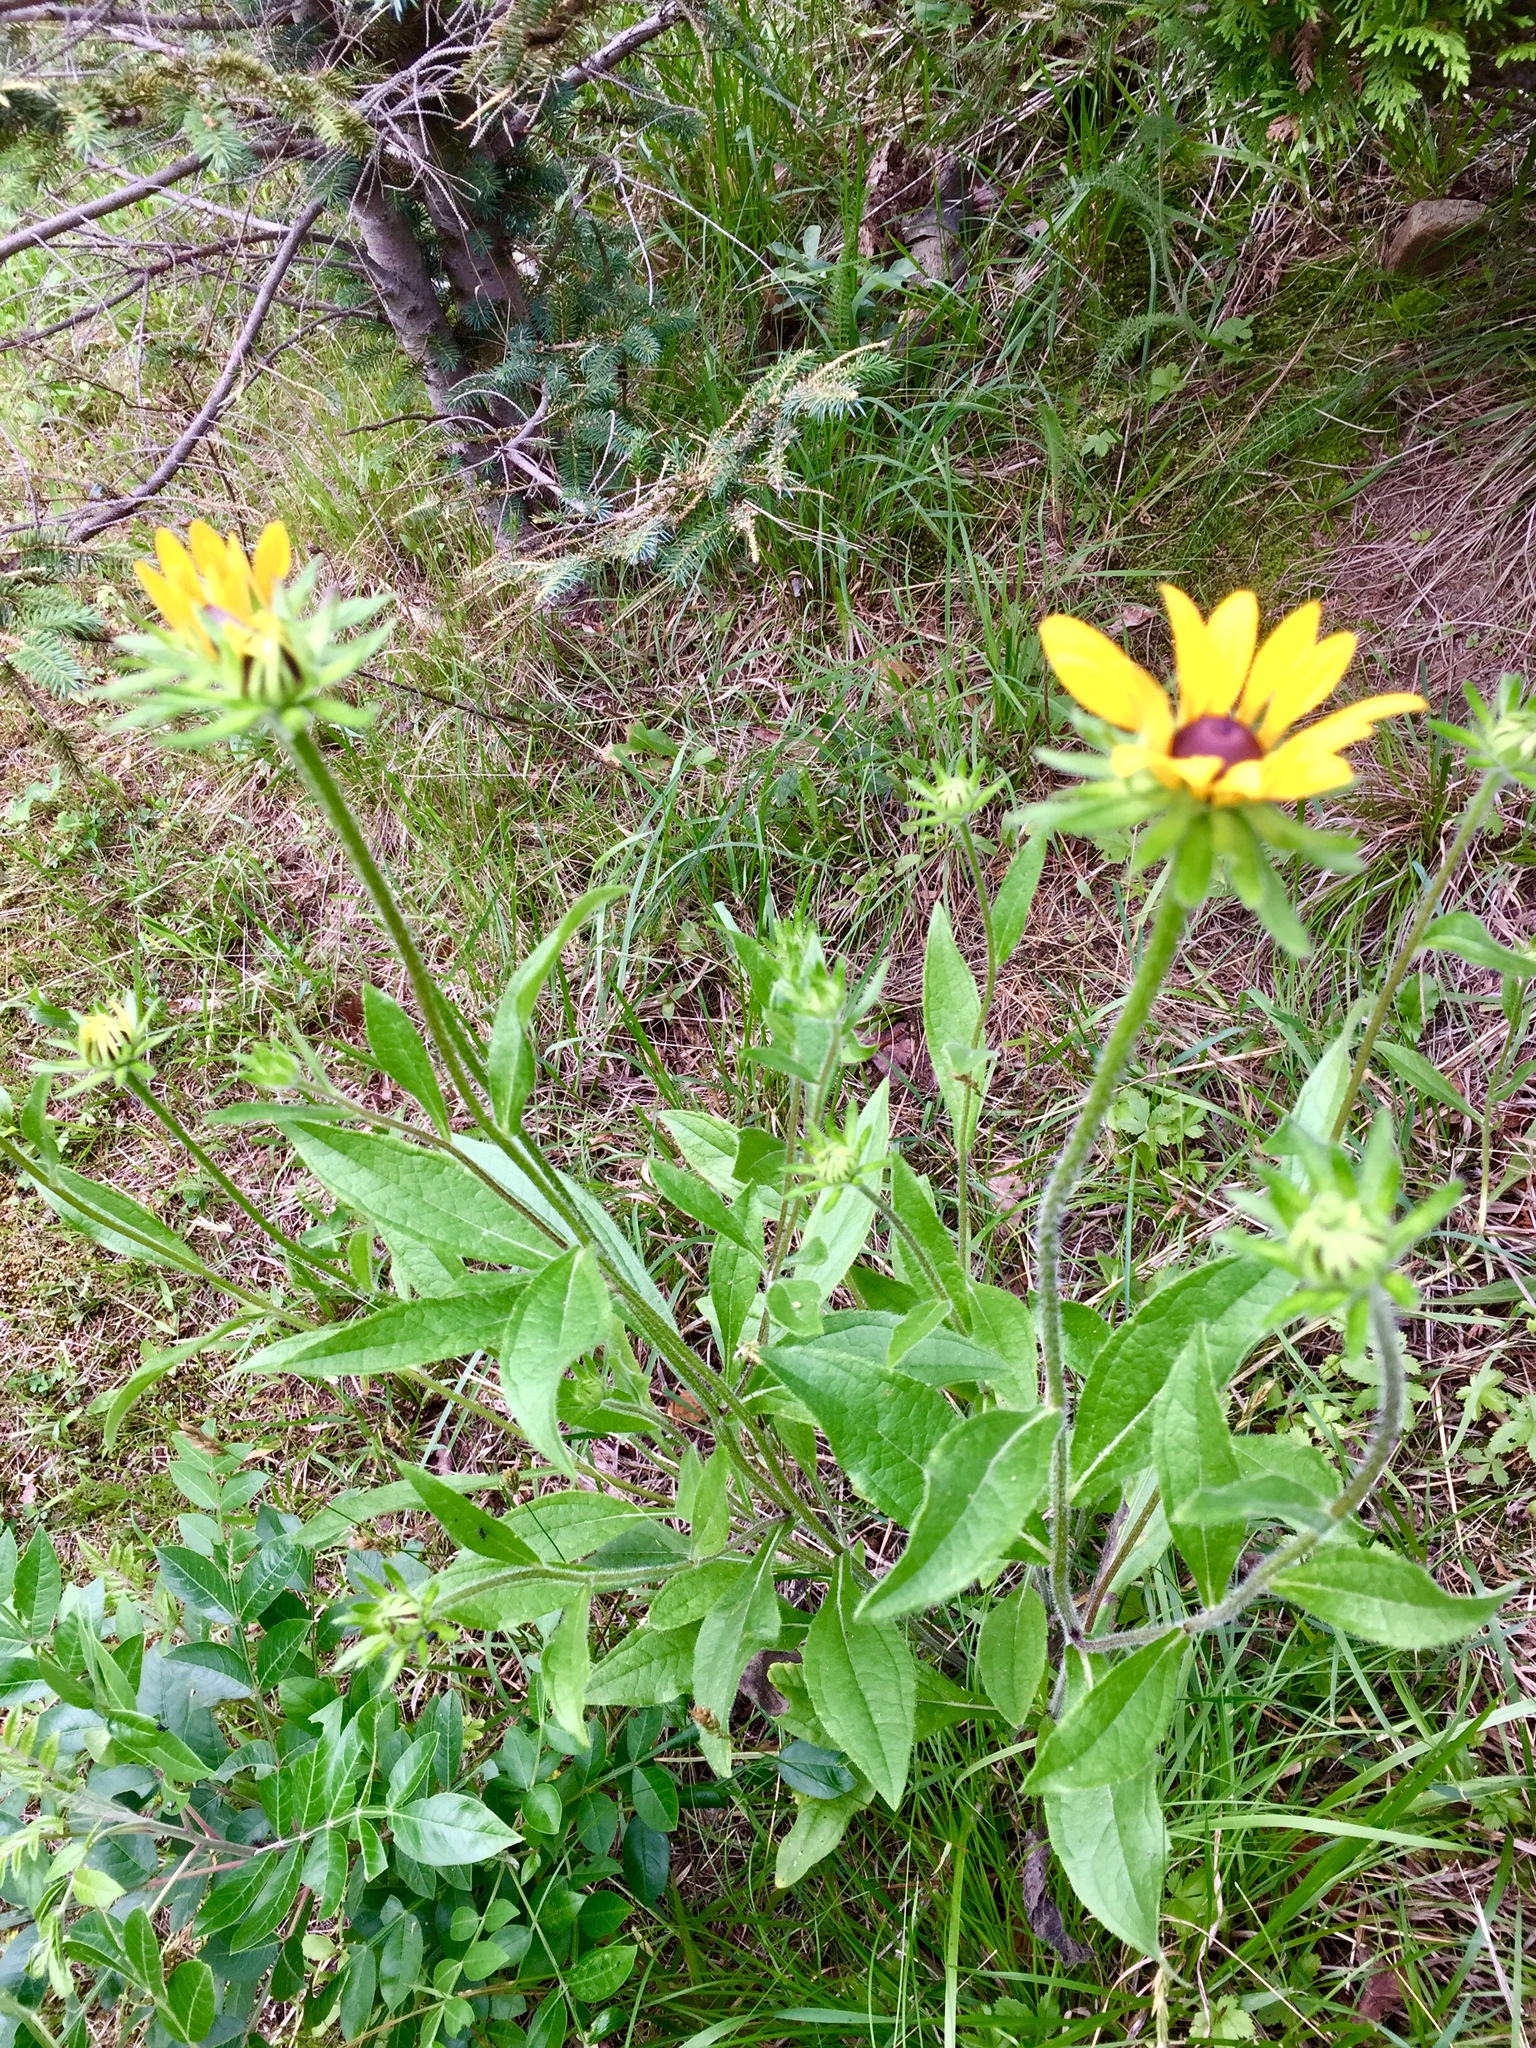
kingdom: Plantae
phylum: Tracheophyta
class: Magnoliopsida
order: Asterales
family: Asteraceae
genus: Rudbeckia
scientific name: Rudbeckia hirta
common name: Black-eyed-susan
